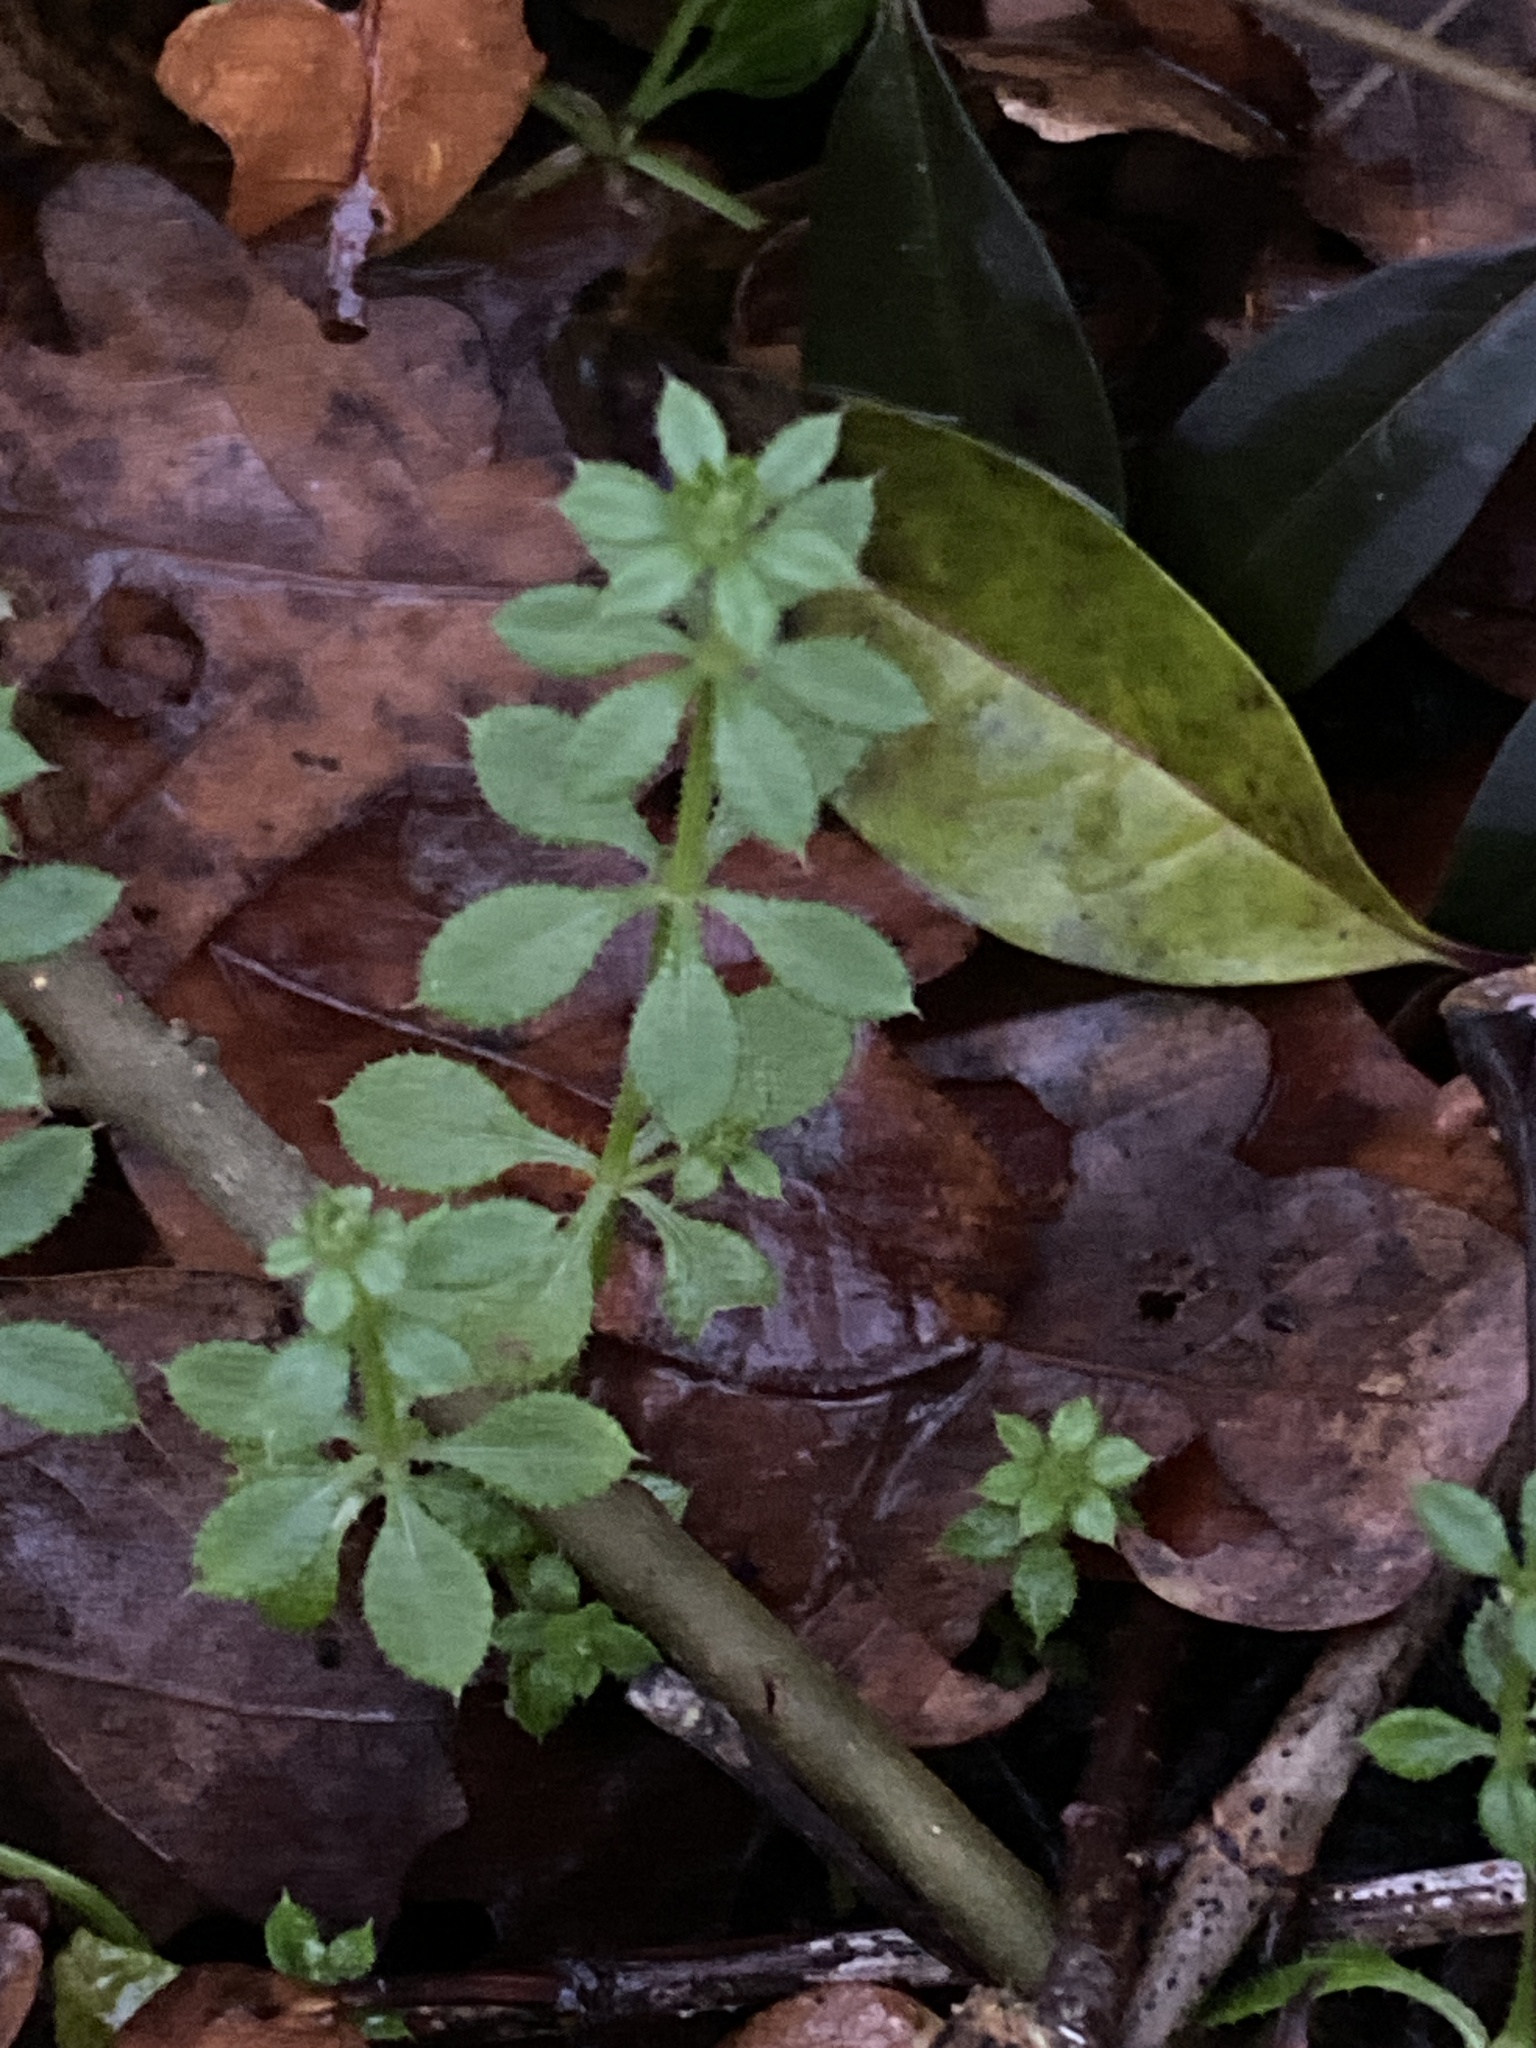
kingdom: Plantae
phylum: Tracheophyta
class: Magnoliopsida
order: Gentianales
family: Rubiaceae
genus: Galium
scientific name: Galium aparine
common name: Cleavers
